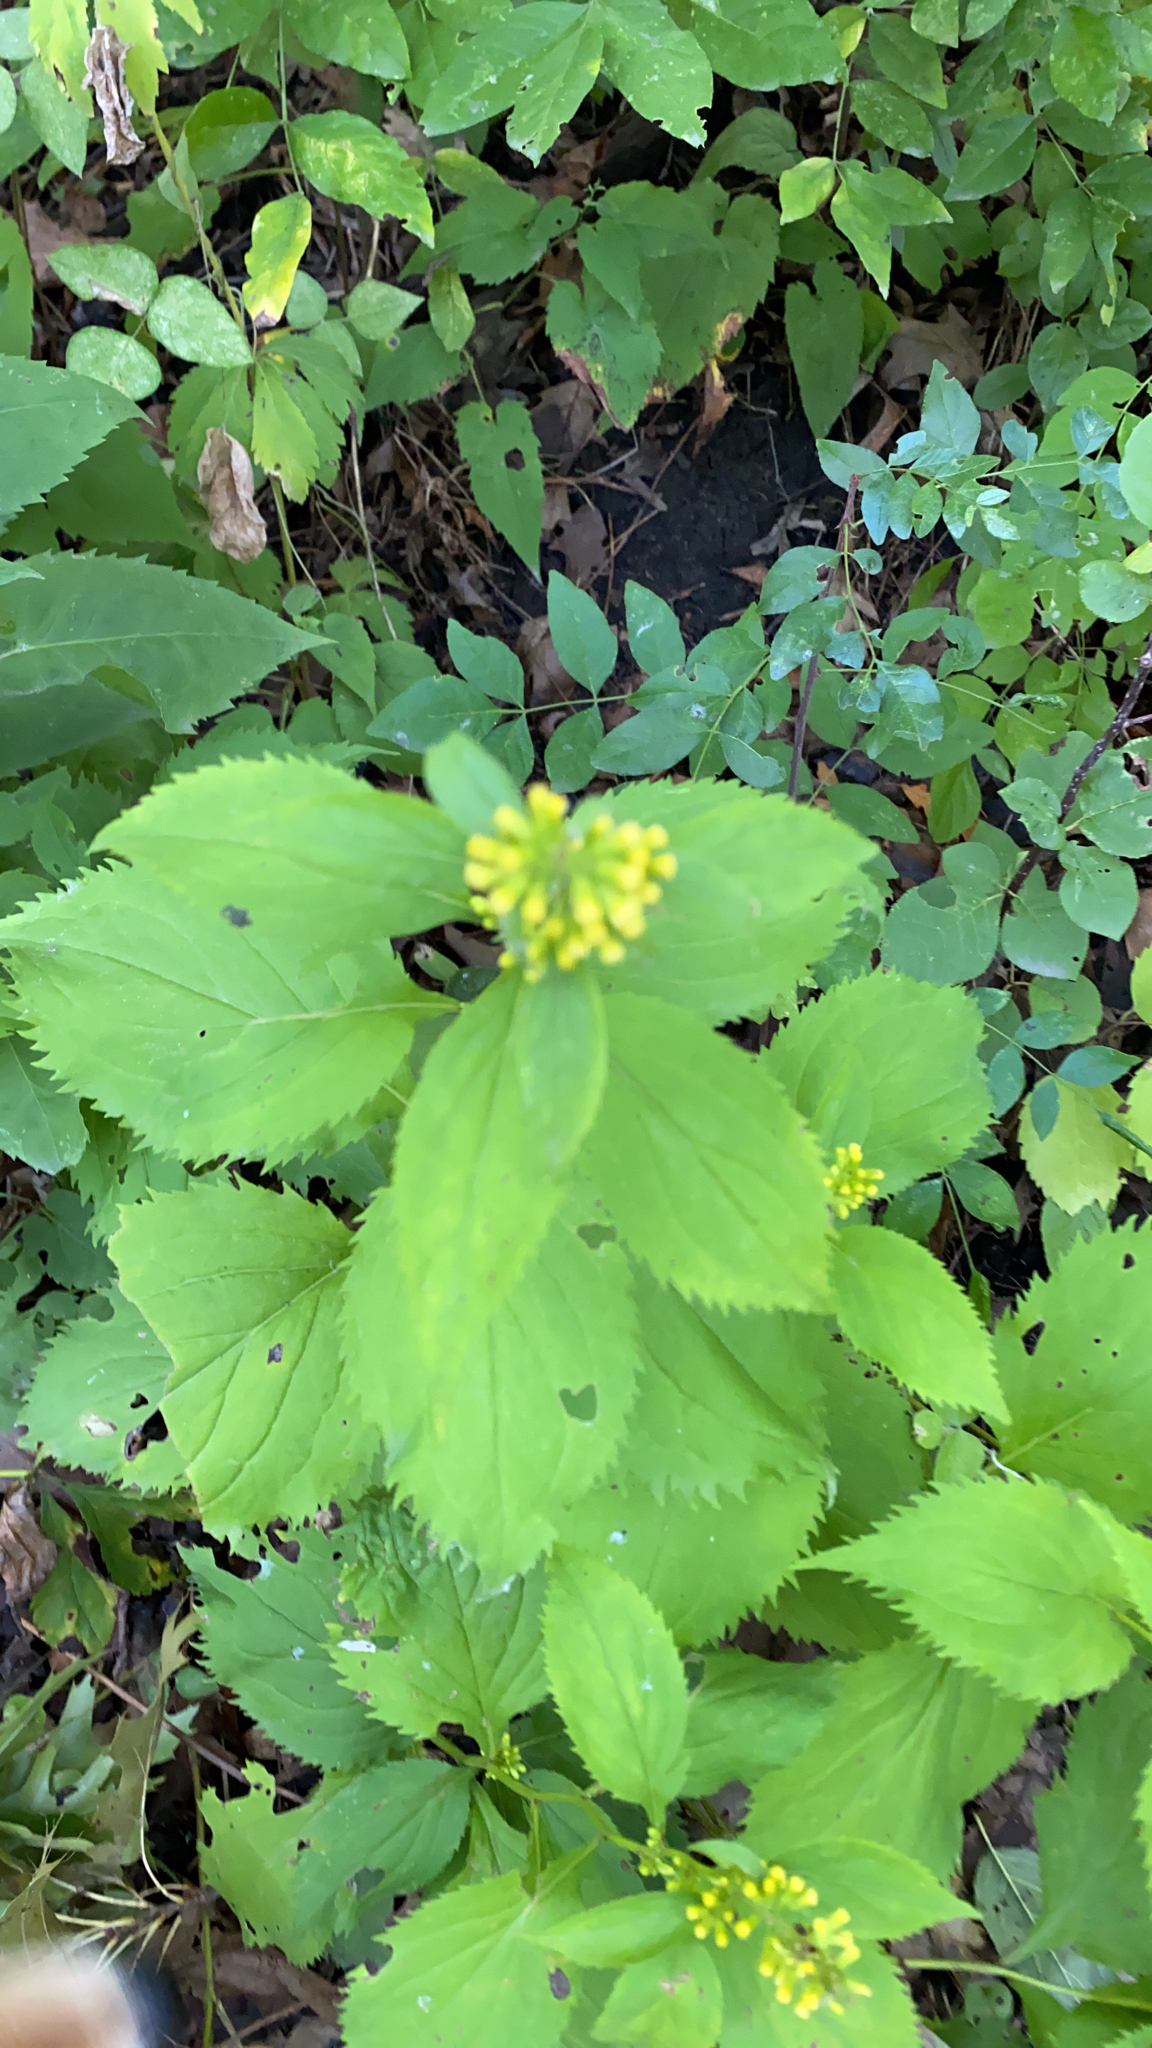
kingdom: Plantae
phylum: Tracheophyta
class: Magnoliopsida
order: Asterales
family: Asteraceae
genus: Solidago
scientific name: Solidago flexicaulis
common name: Zig-zag goldenrod
